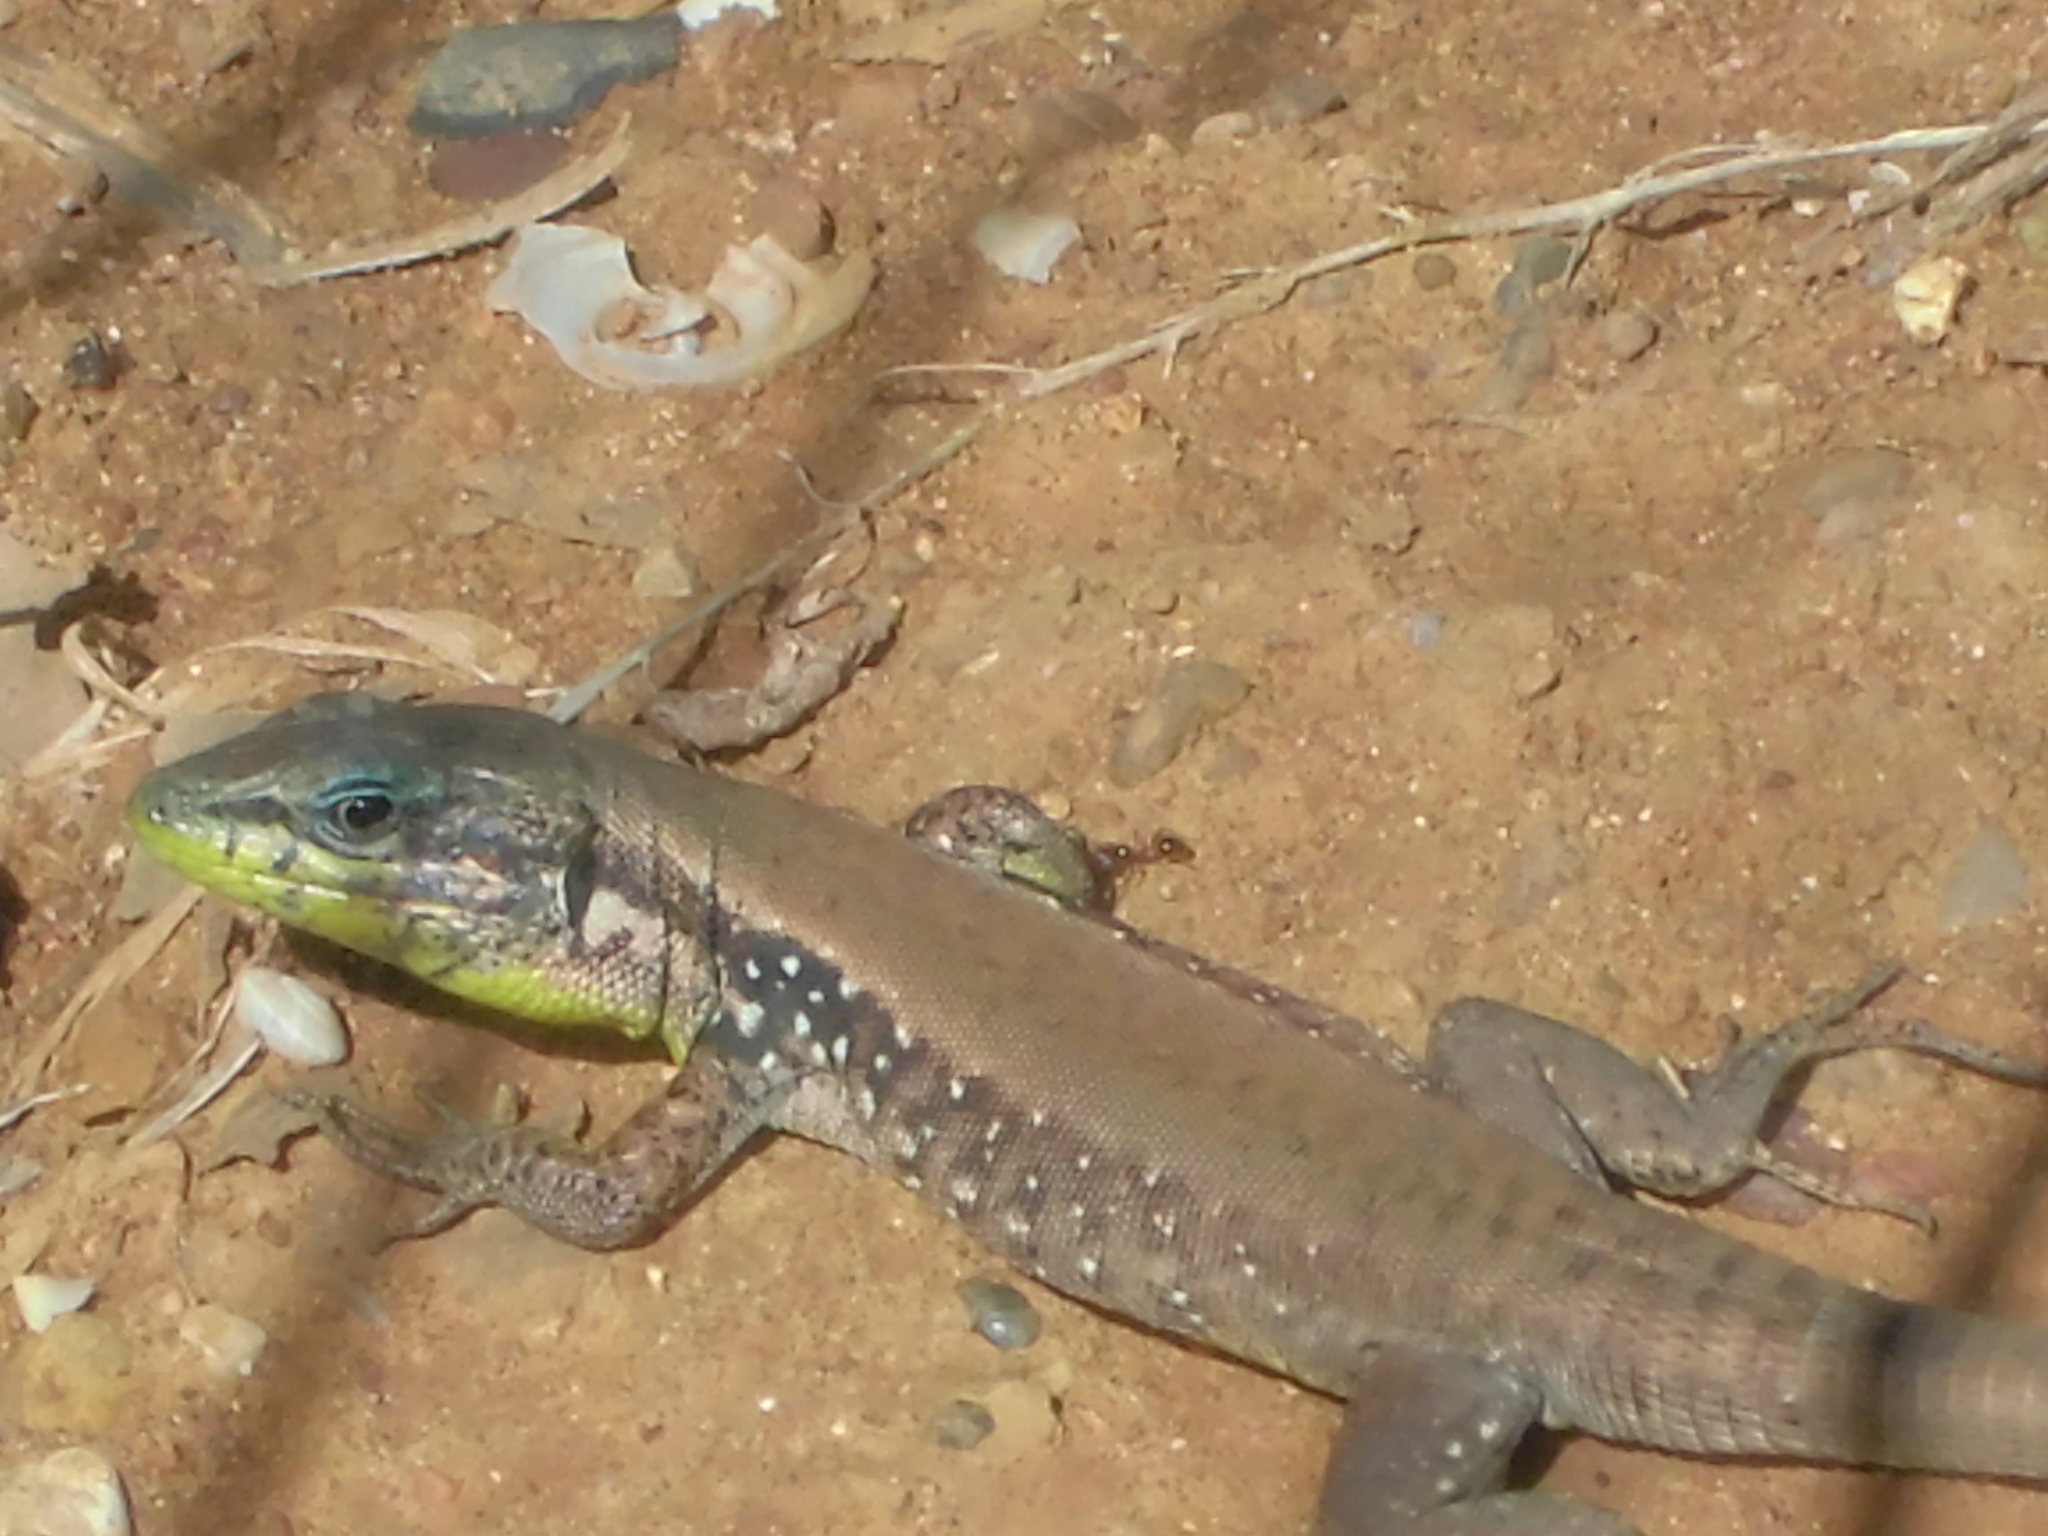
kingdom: Animalia
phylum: Chordata
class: Squamata
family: Lacertidae
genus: Phoenicolacerta
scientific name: Phoenicolacerta laevis
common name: Lebanon lizard
